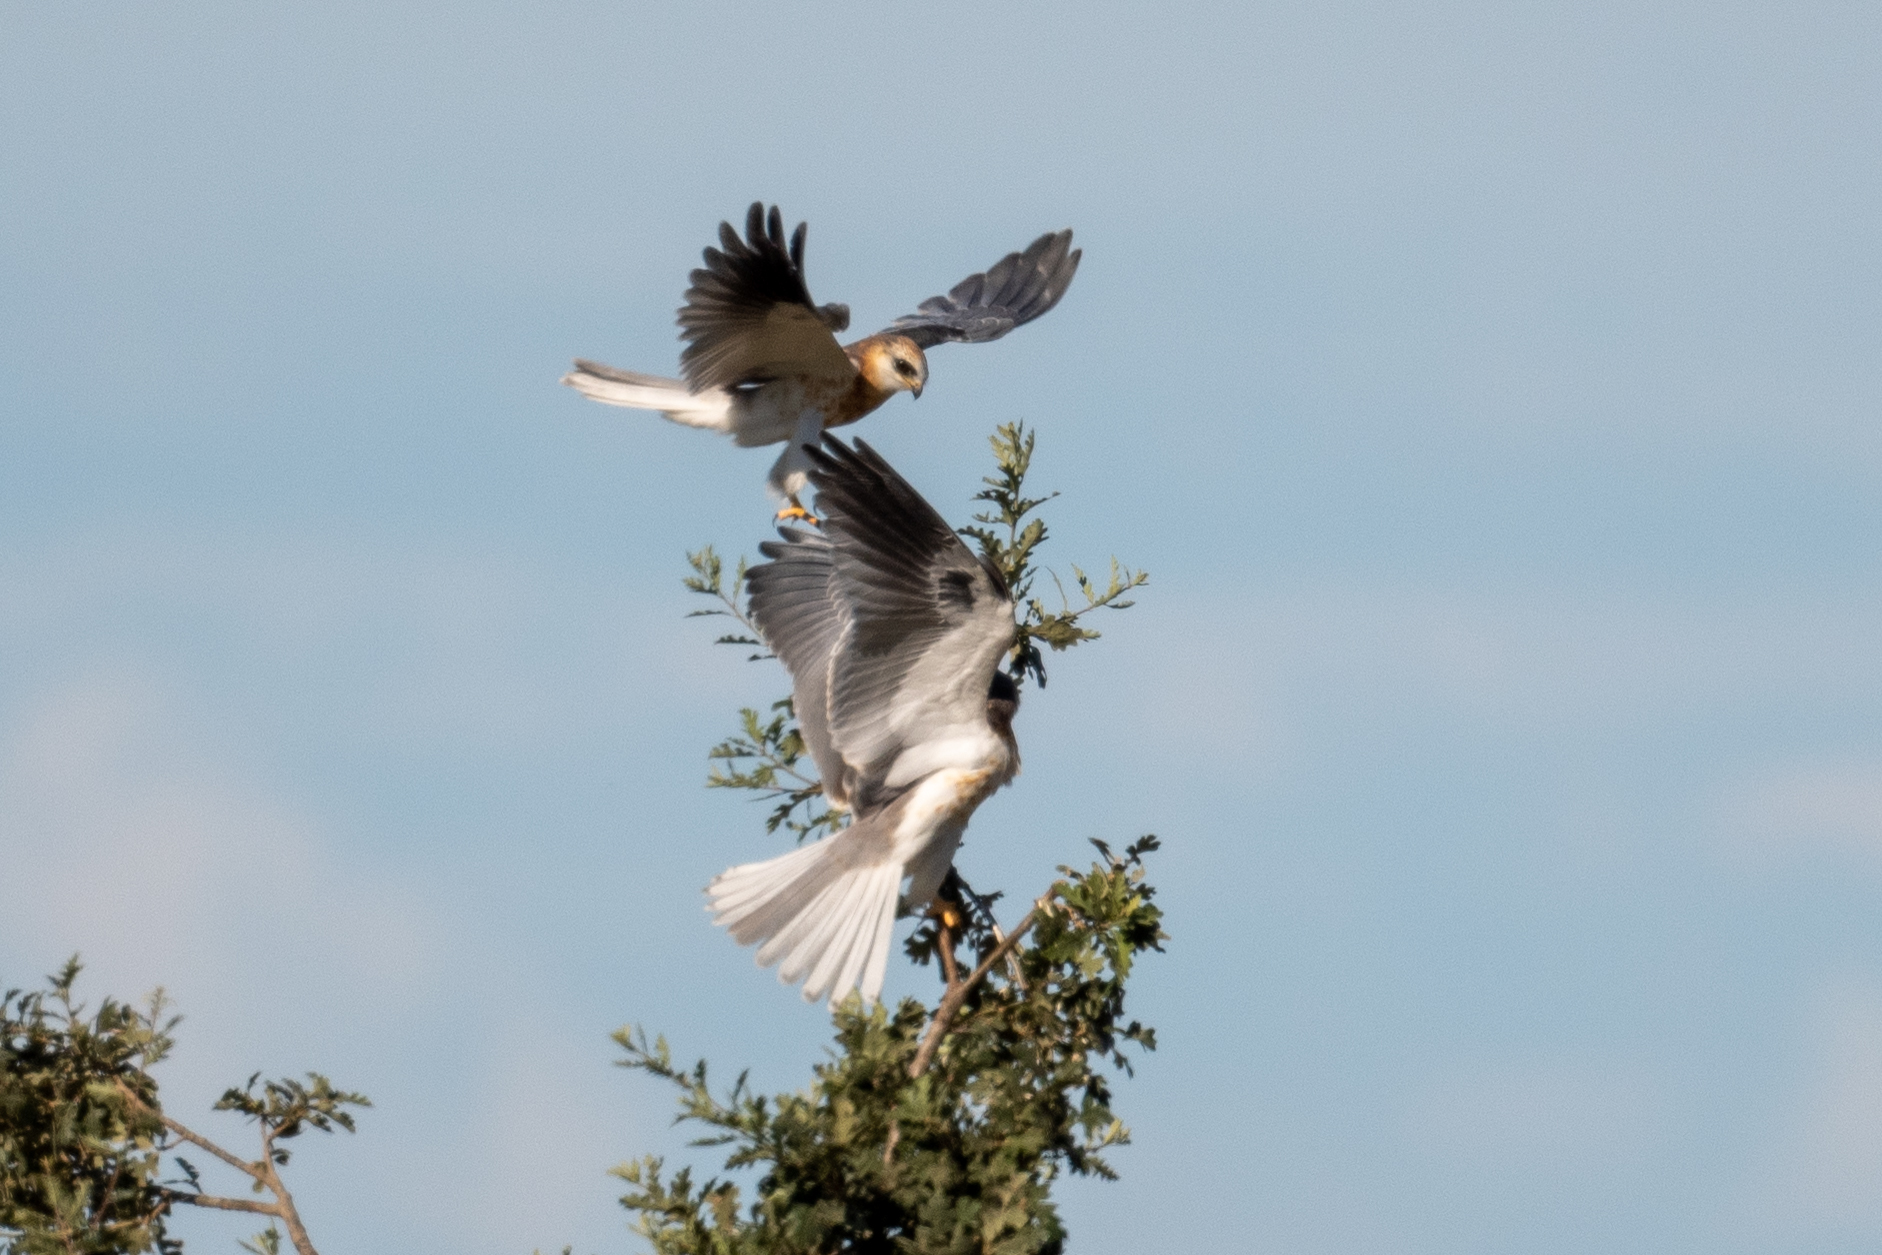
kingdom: Animalia
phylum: Chordata
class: Aves
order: Accipitriformes
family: Accipitridae
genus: Elanus
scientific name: Elanus leucurus
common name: White-tailed kite
